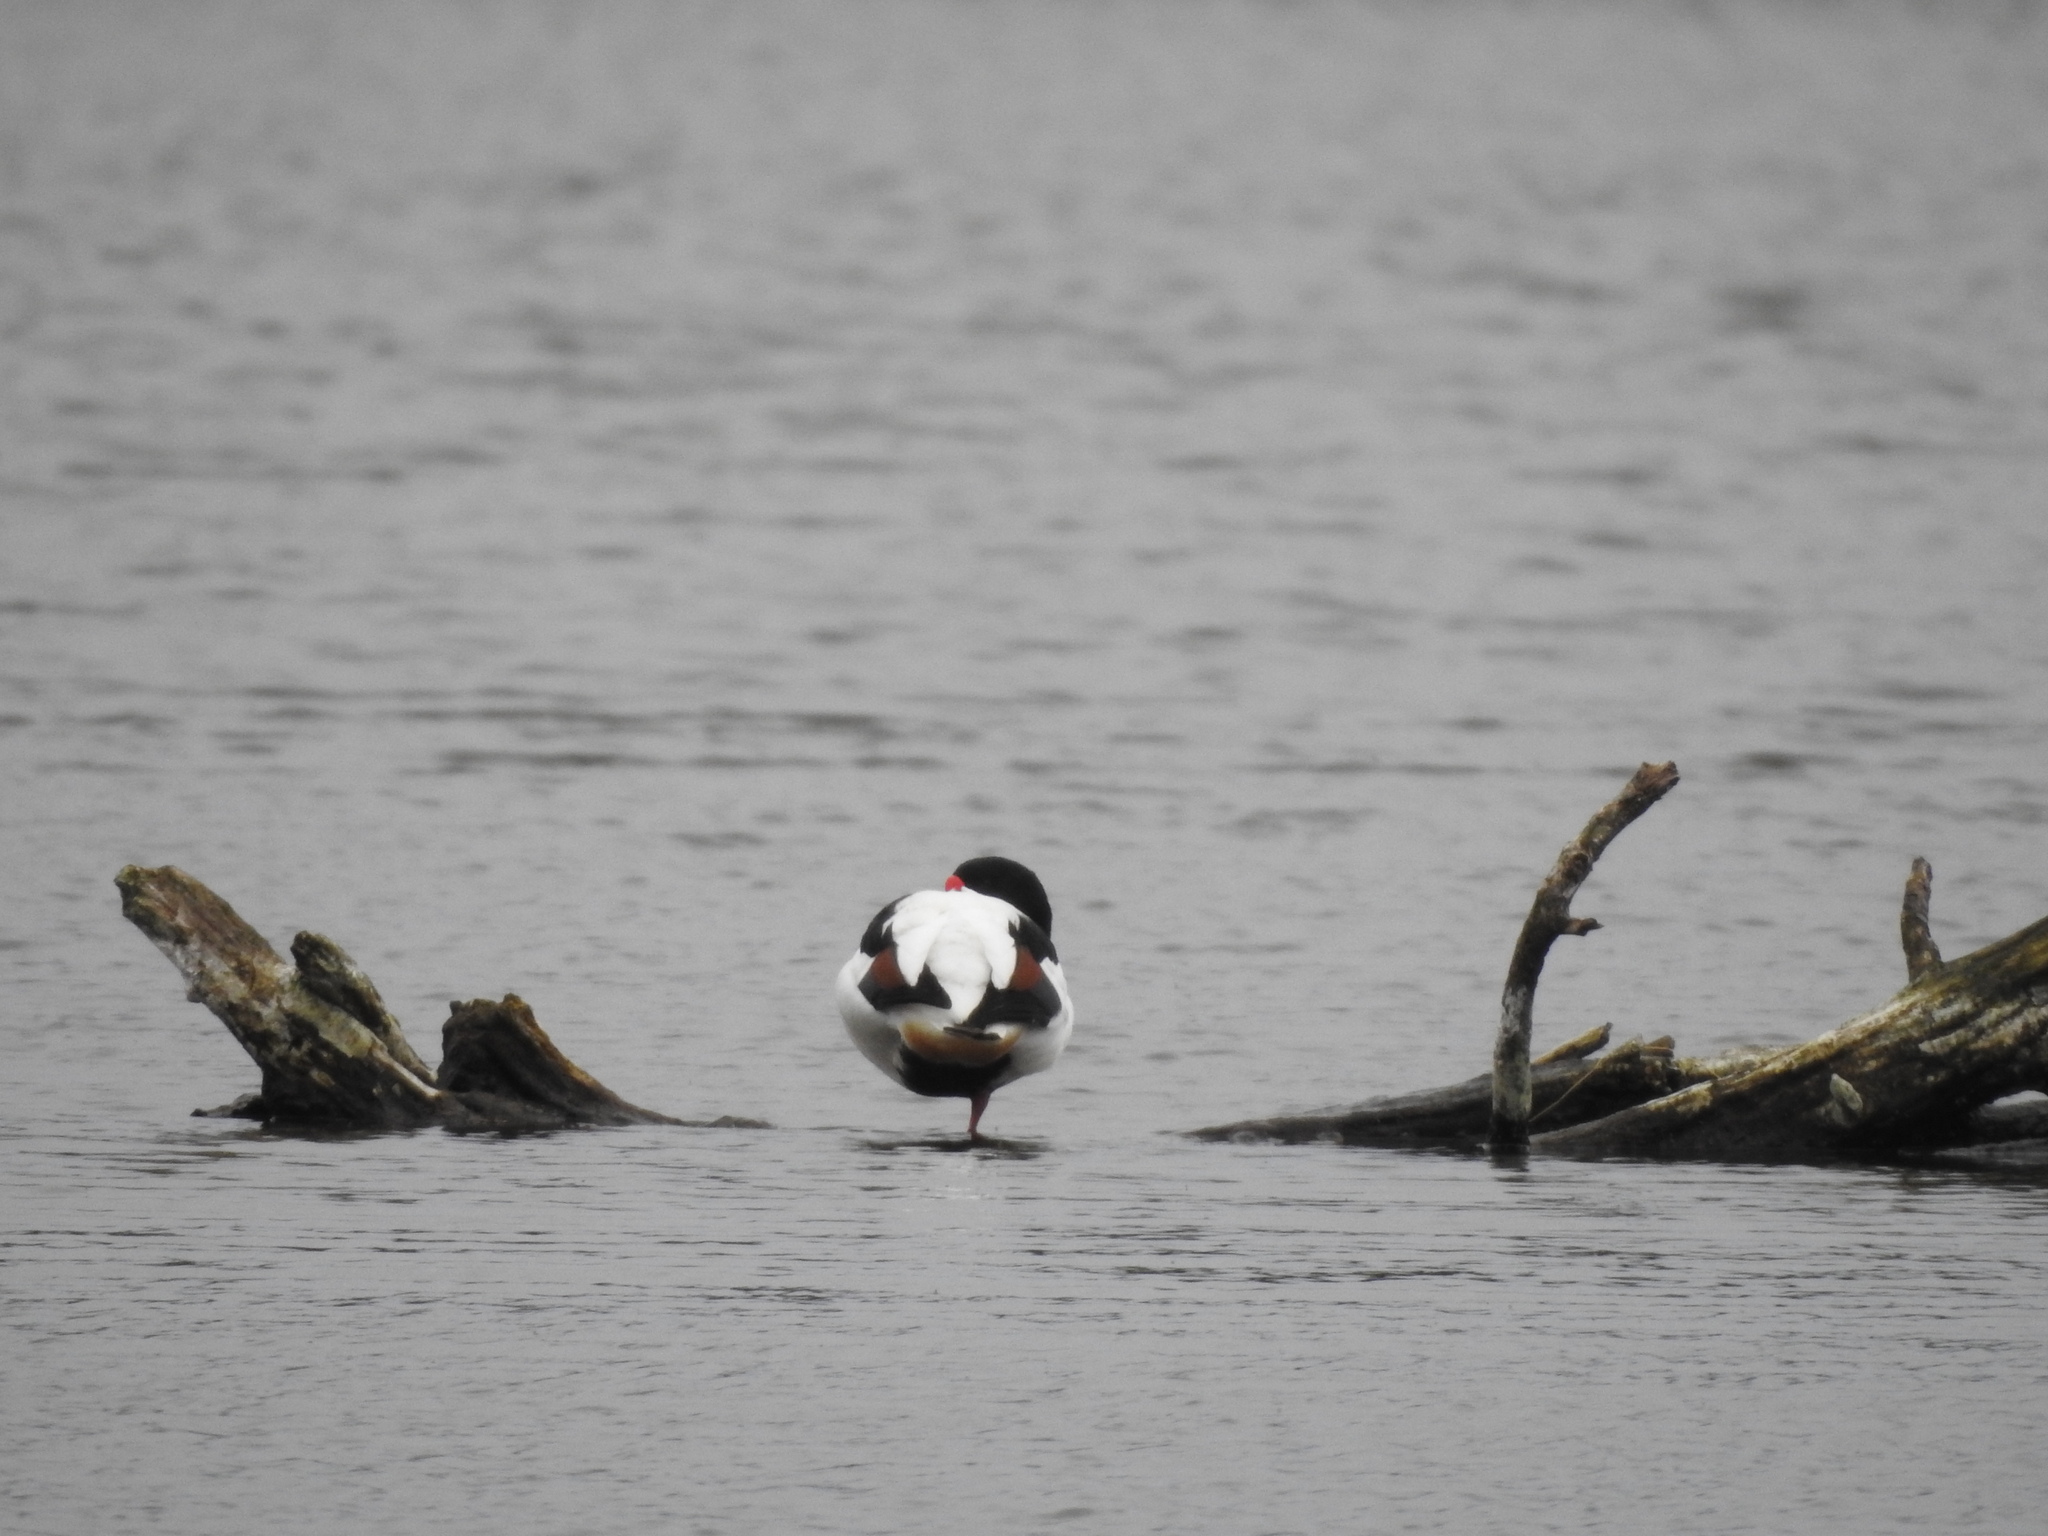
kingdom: Animalia
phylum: Chordata
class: Aves
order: Anseriformes
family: Anatidae
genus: Tadorna
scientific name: Tadorna tadorna
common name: Common shelduck
